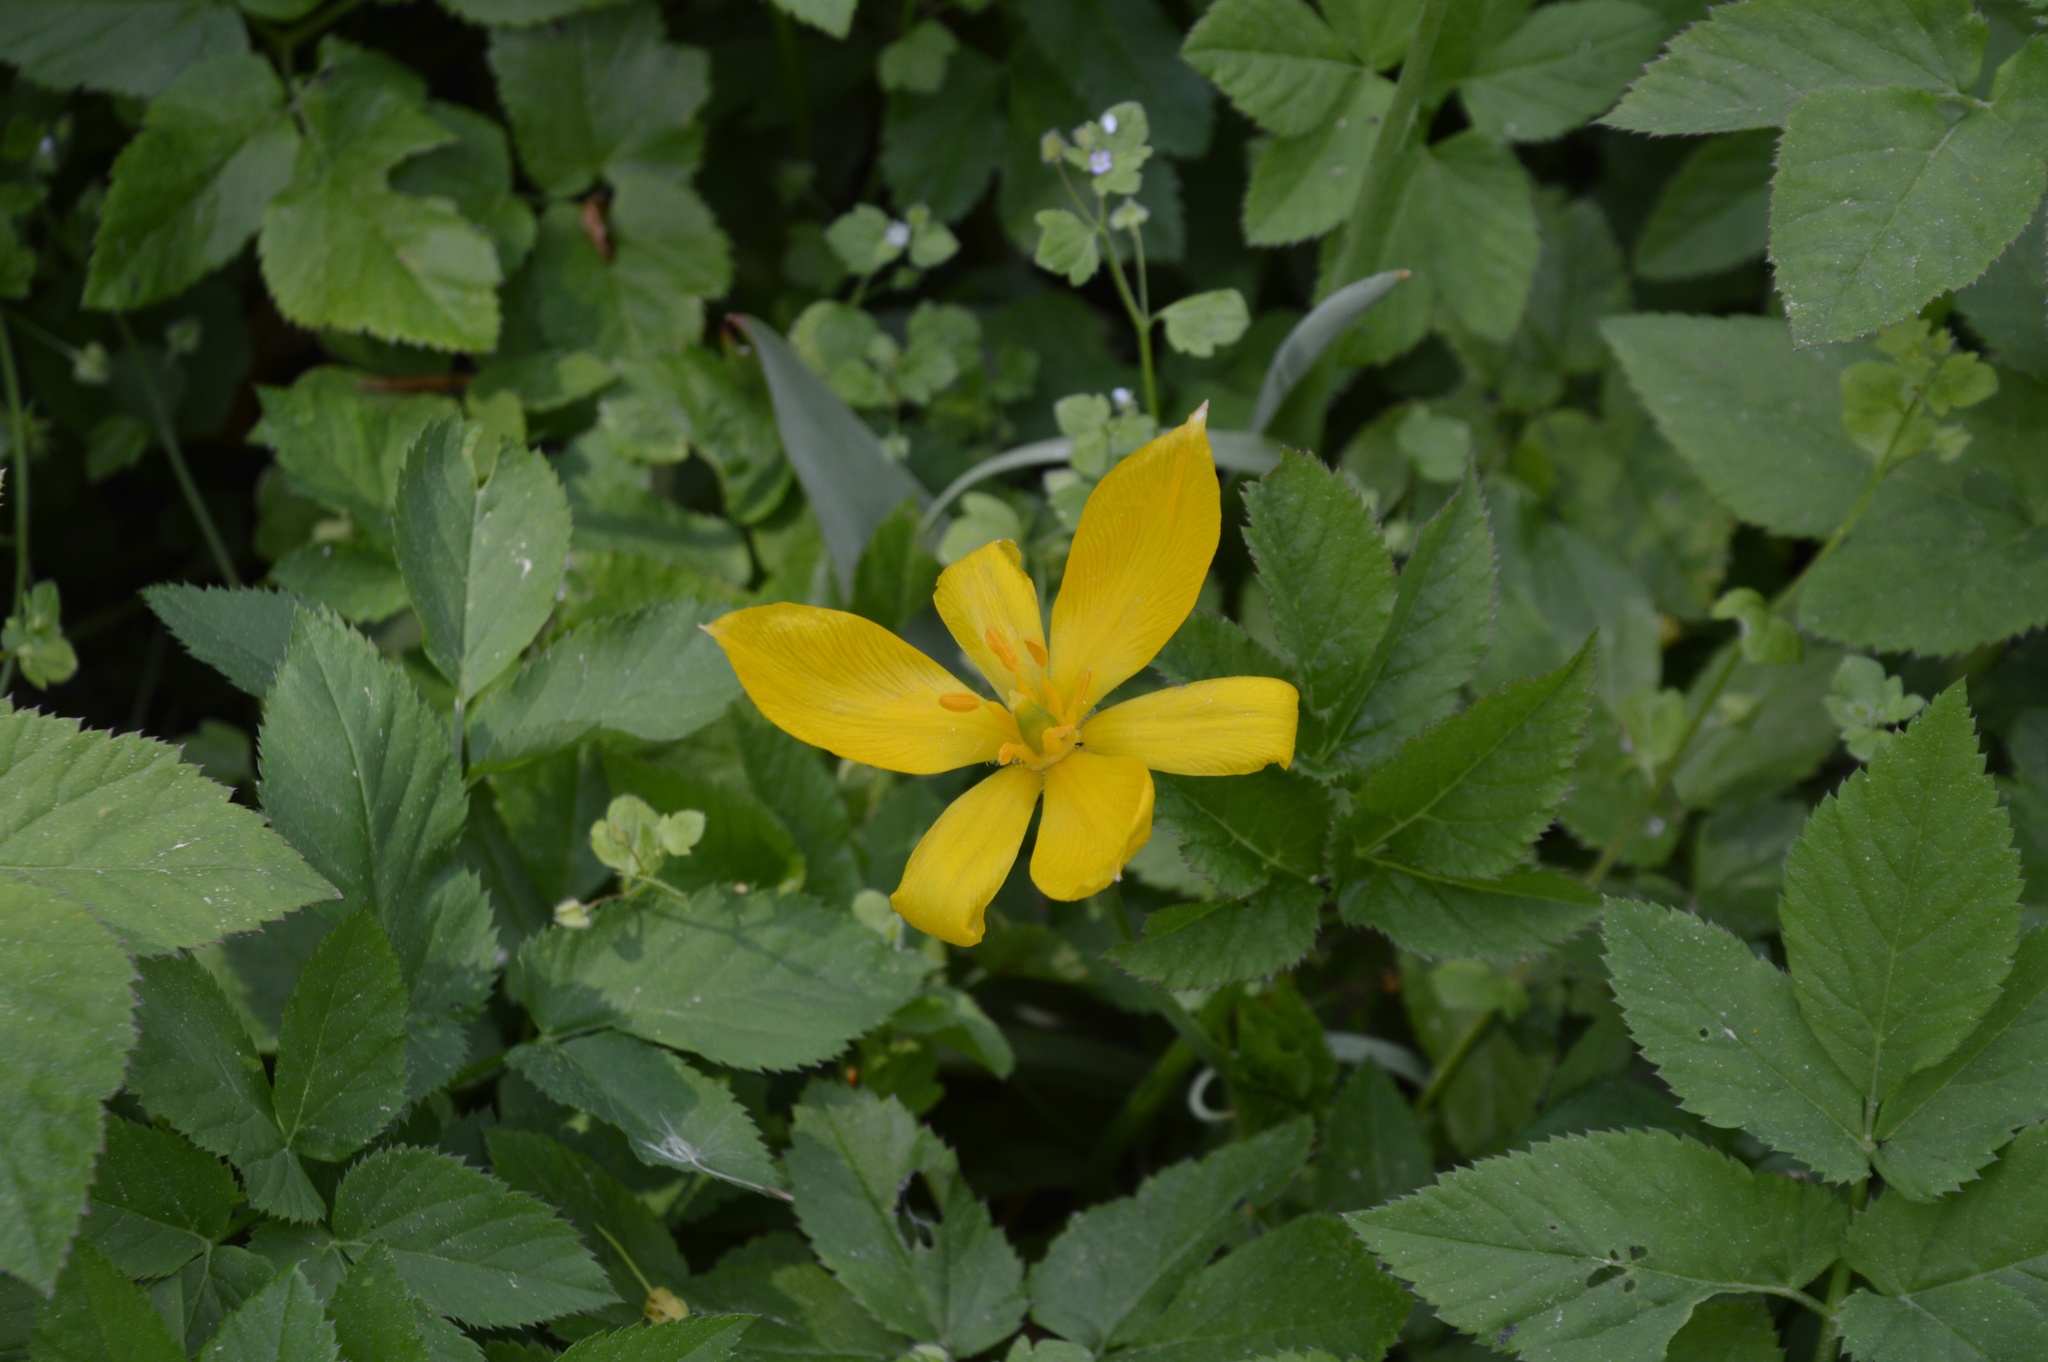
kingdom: Plantae
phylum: Tracheophyta
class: Liliopsida
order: Liliales
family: Liliaceae
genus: Tulipa
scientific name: Tulipa sylvestris
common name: Wild tulip
